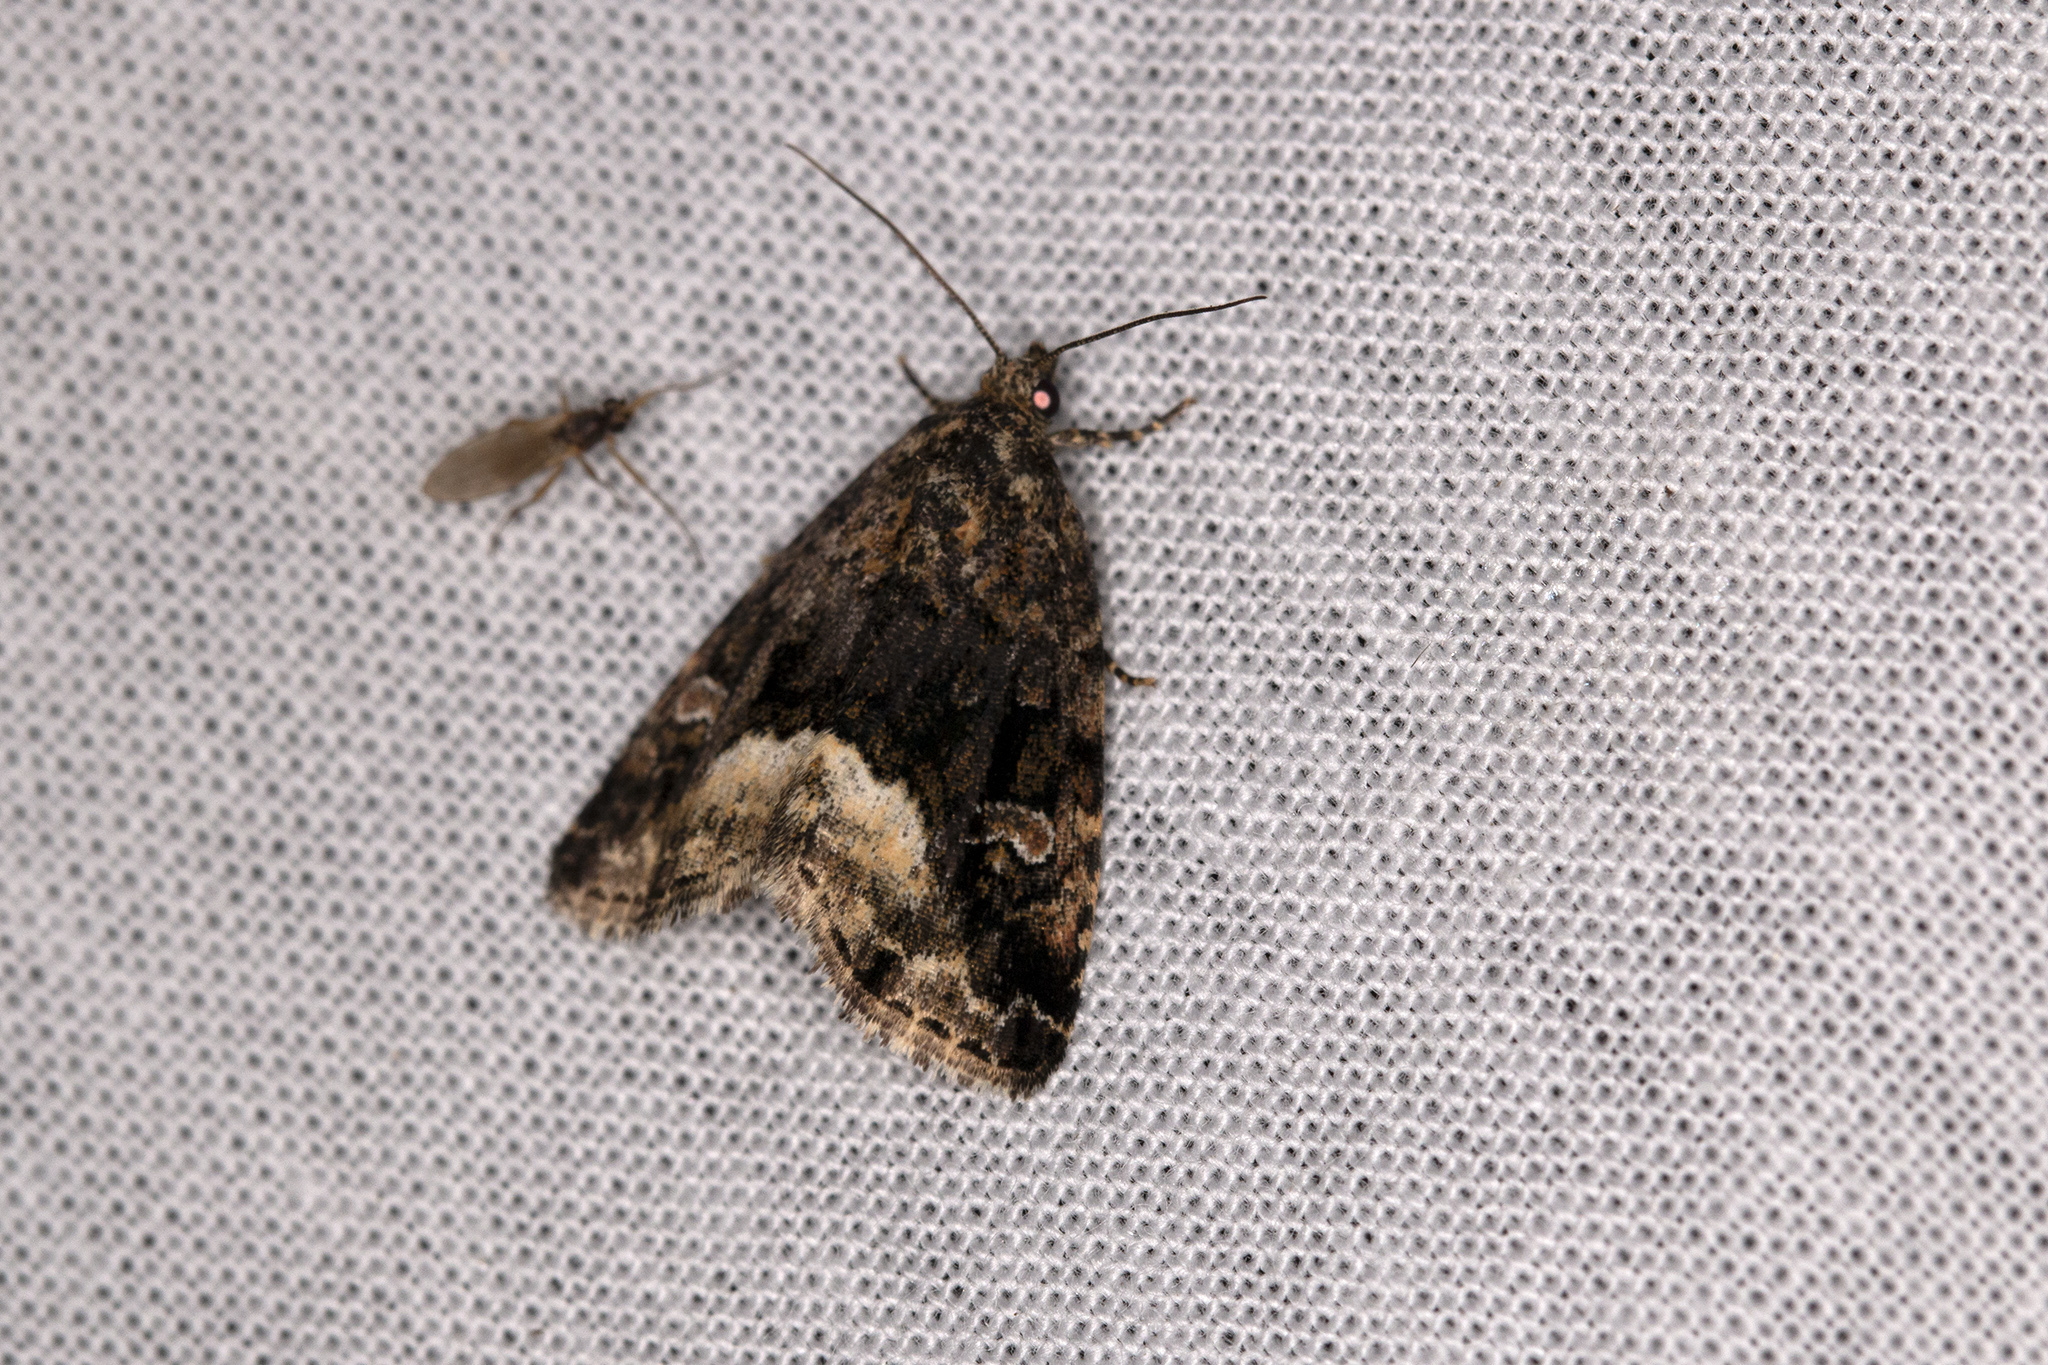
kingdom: Animalia
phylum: Arthropoda
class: Insecta
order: Lepidoptera
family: Noctuidae
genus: Deltote
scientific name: Deltote pygarga
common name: Marbled white spot
